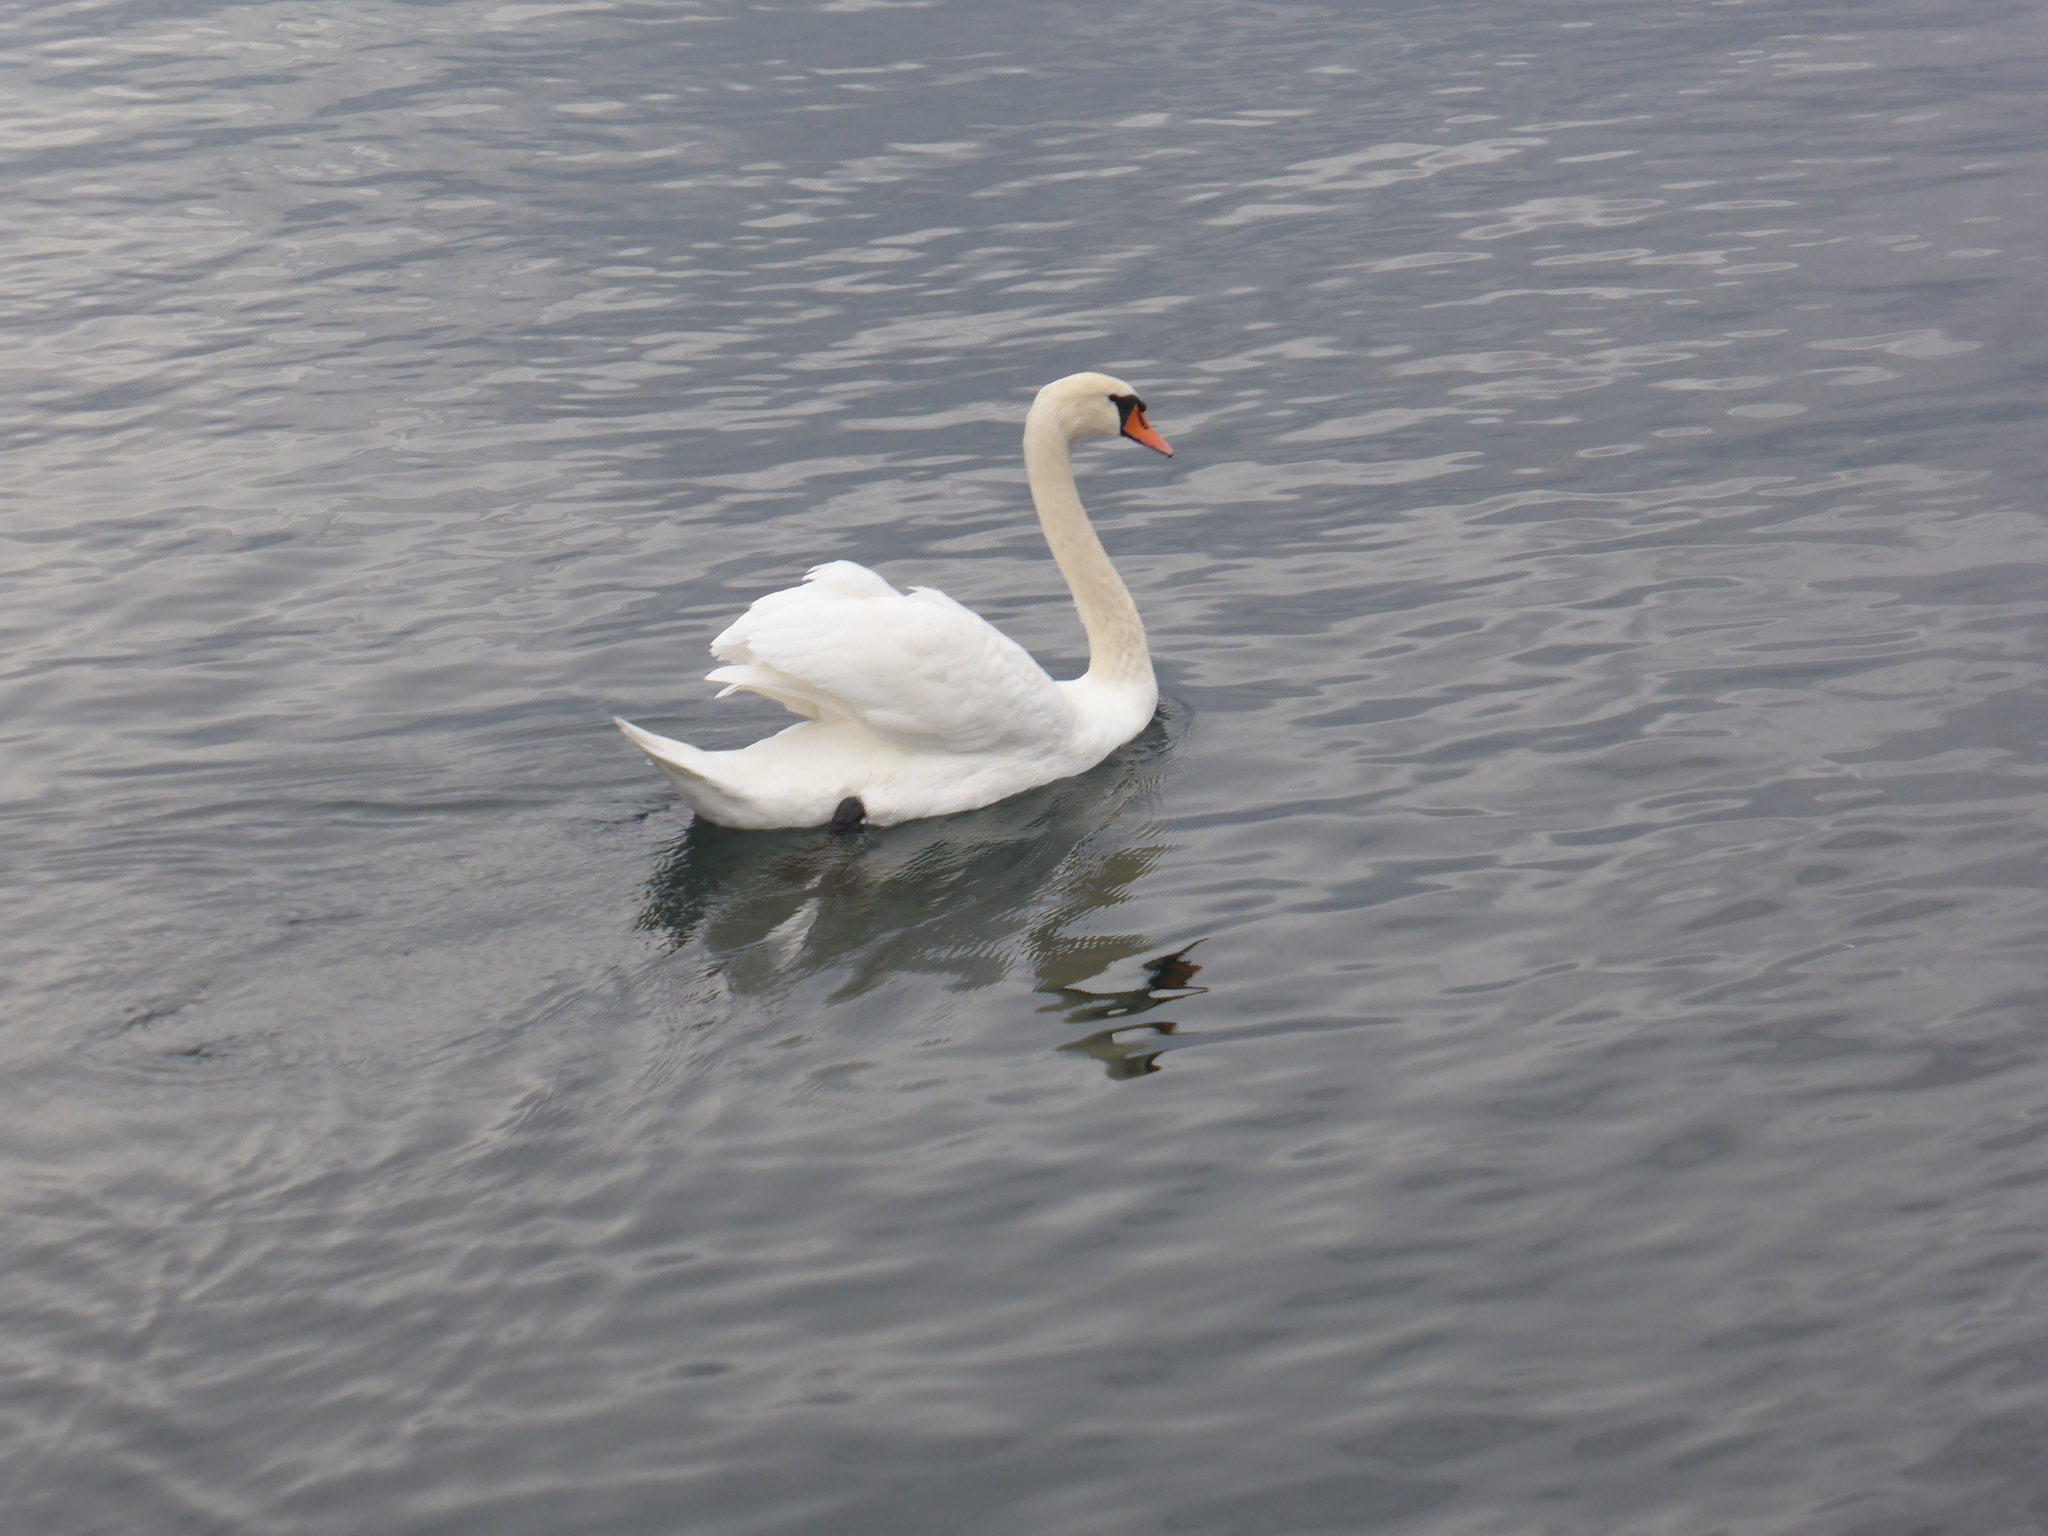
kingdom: Animalia
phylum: Chordata
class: Aves
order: Anseriformes
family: Anatidae
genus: Cygnus
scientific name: Cygnus olor
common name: Mute swan
